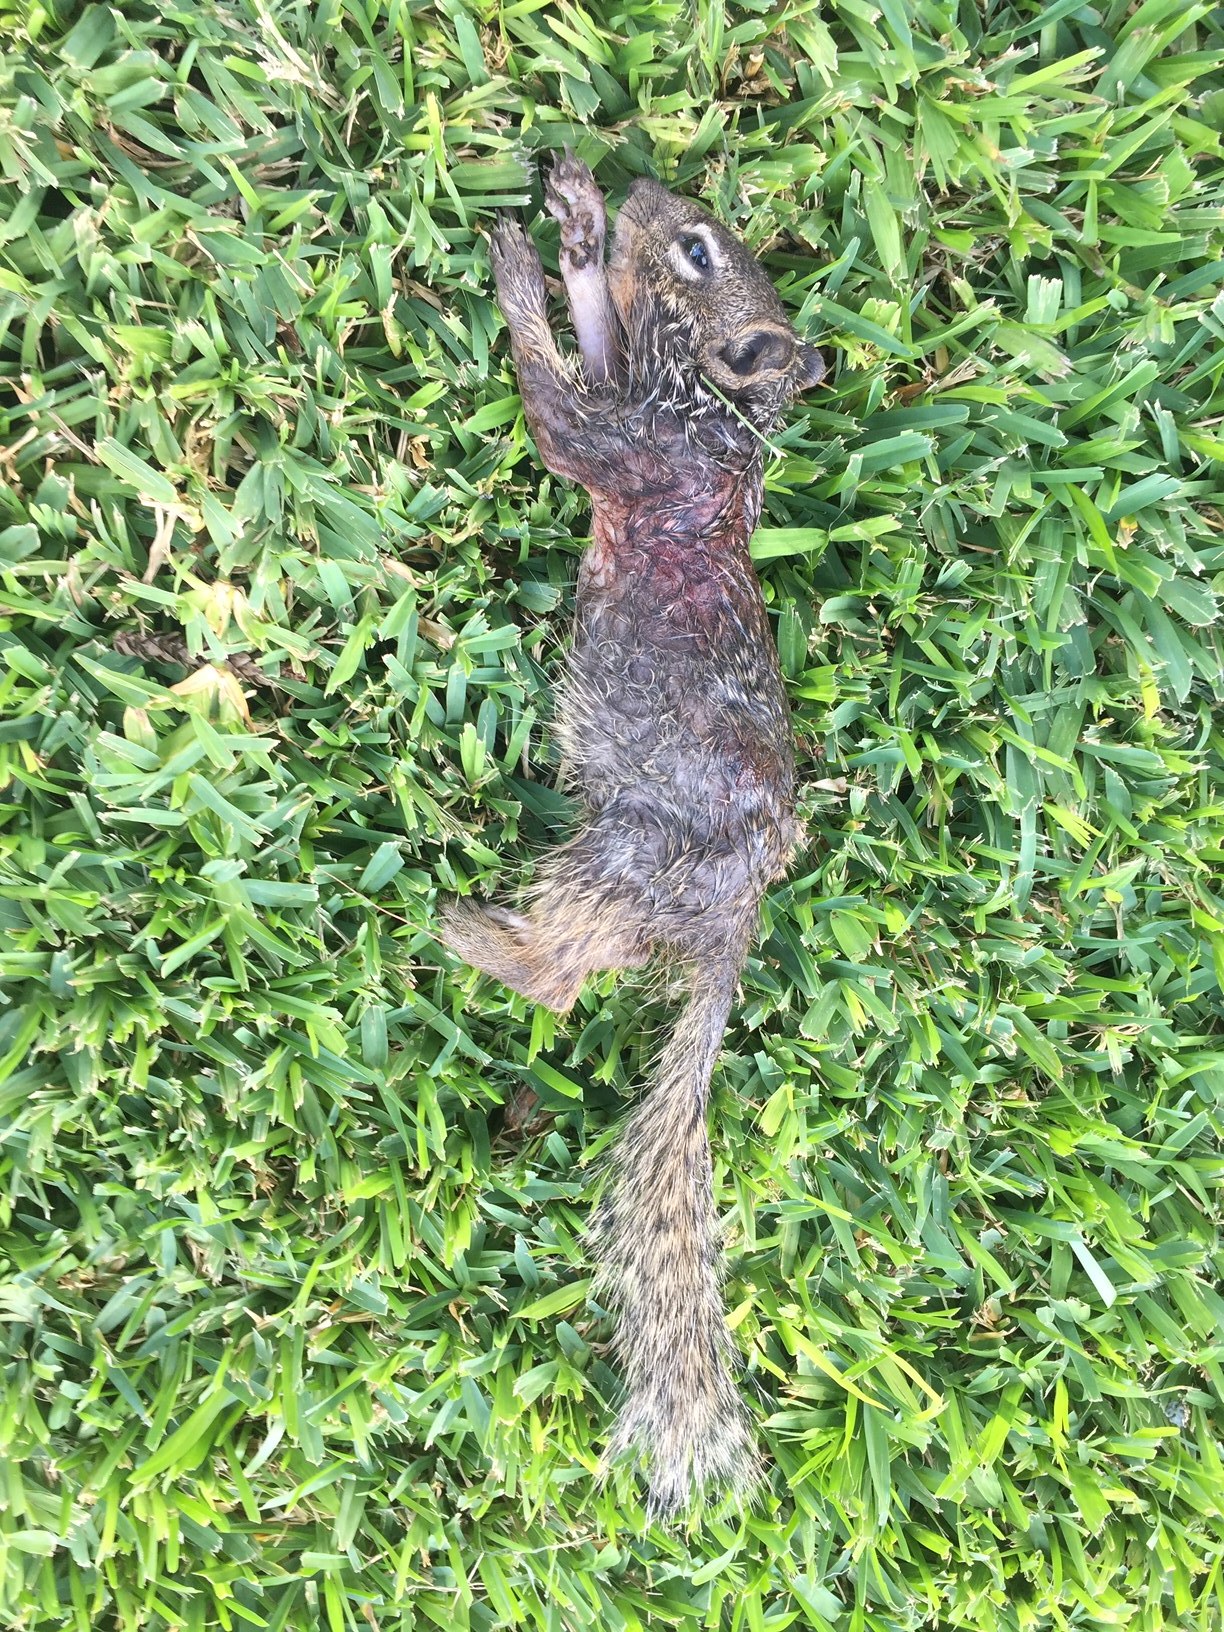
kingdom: Animalia
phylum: Chordata
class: Mammalia
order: Rodentia
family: Sciuridae
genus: Otospermophilus
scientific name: Otospermophilus variegatus
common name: Rock squirrel
